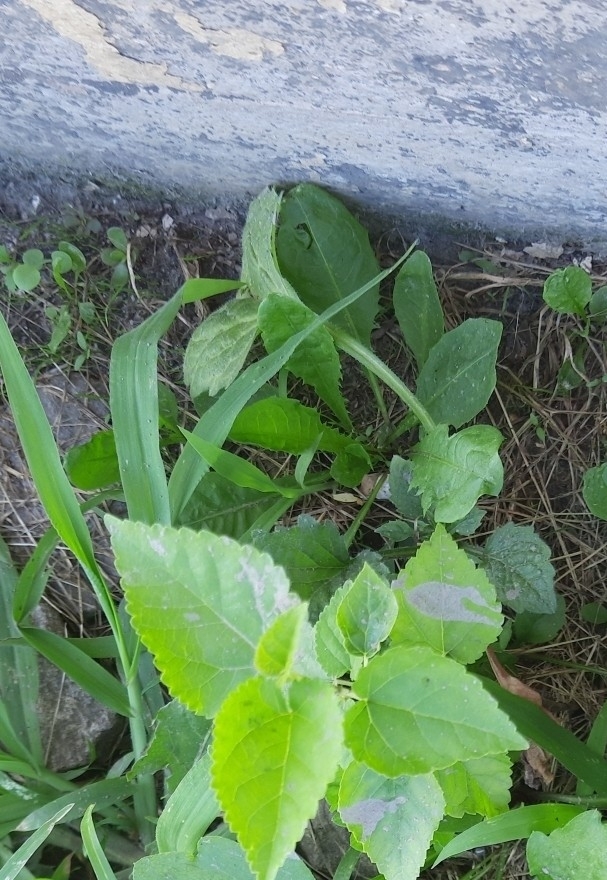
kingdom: Plantae
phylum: Tracheophyta
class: Magnoliopsida
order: Lamiales
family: Lamiaceae
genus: Stachys
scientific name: Stachys sylvatica
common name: Hedge woundwort
